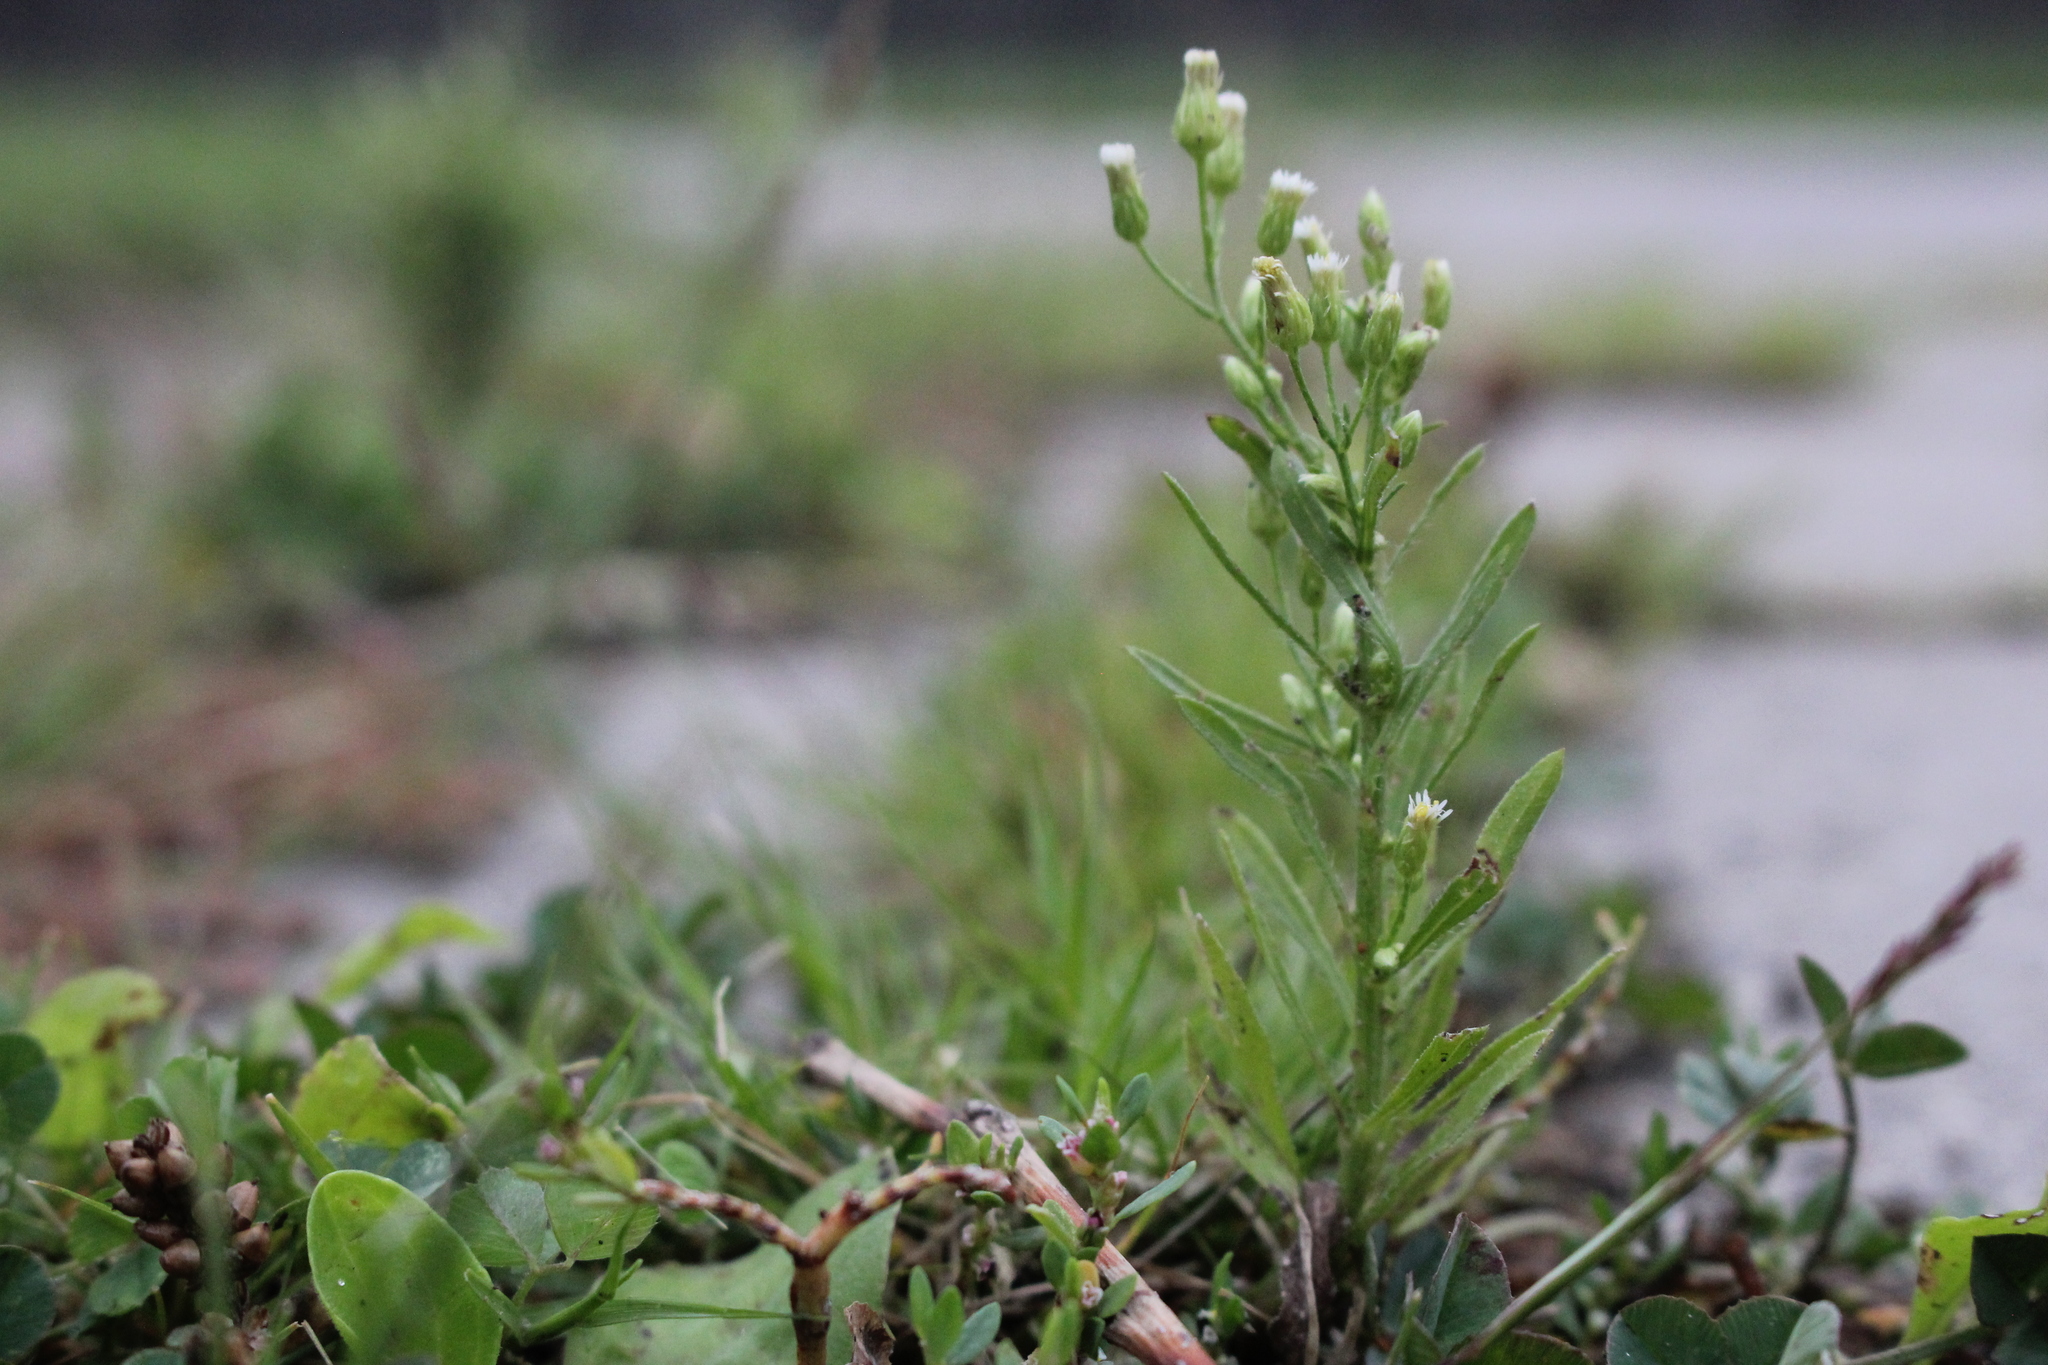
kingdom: Plantae
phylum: Tracheophyta
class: Magnoliopsida
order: Asterales
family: Asteraceae
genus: Erigeron
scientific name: Erigeron canadensis
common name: Canadian fleabane
